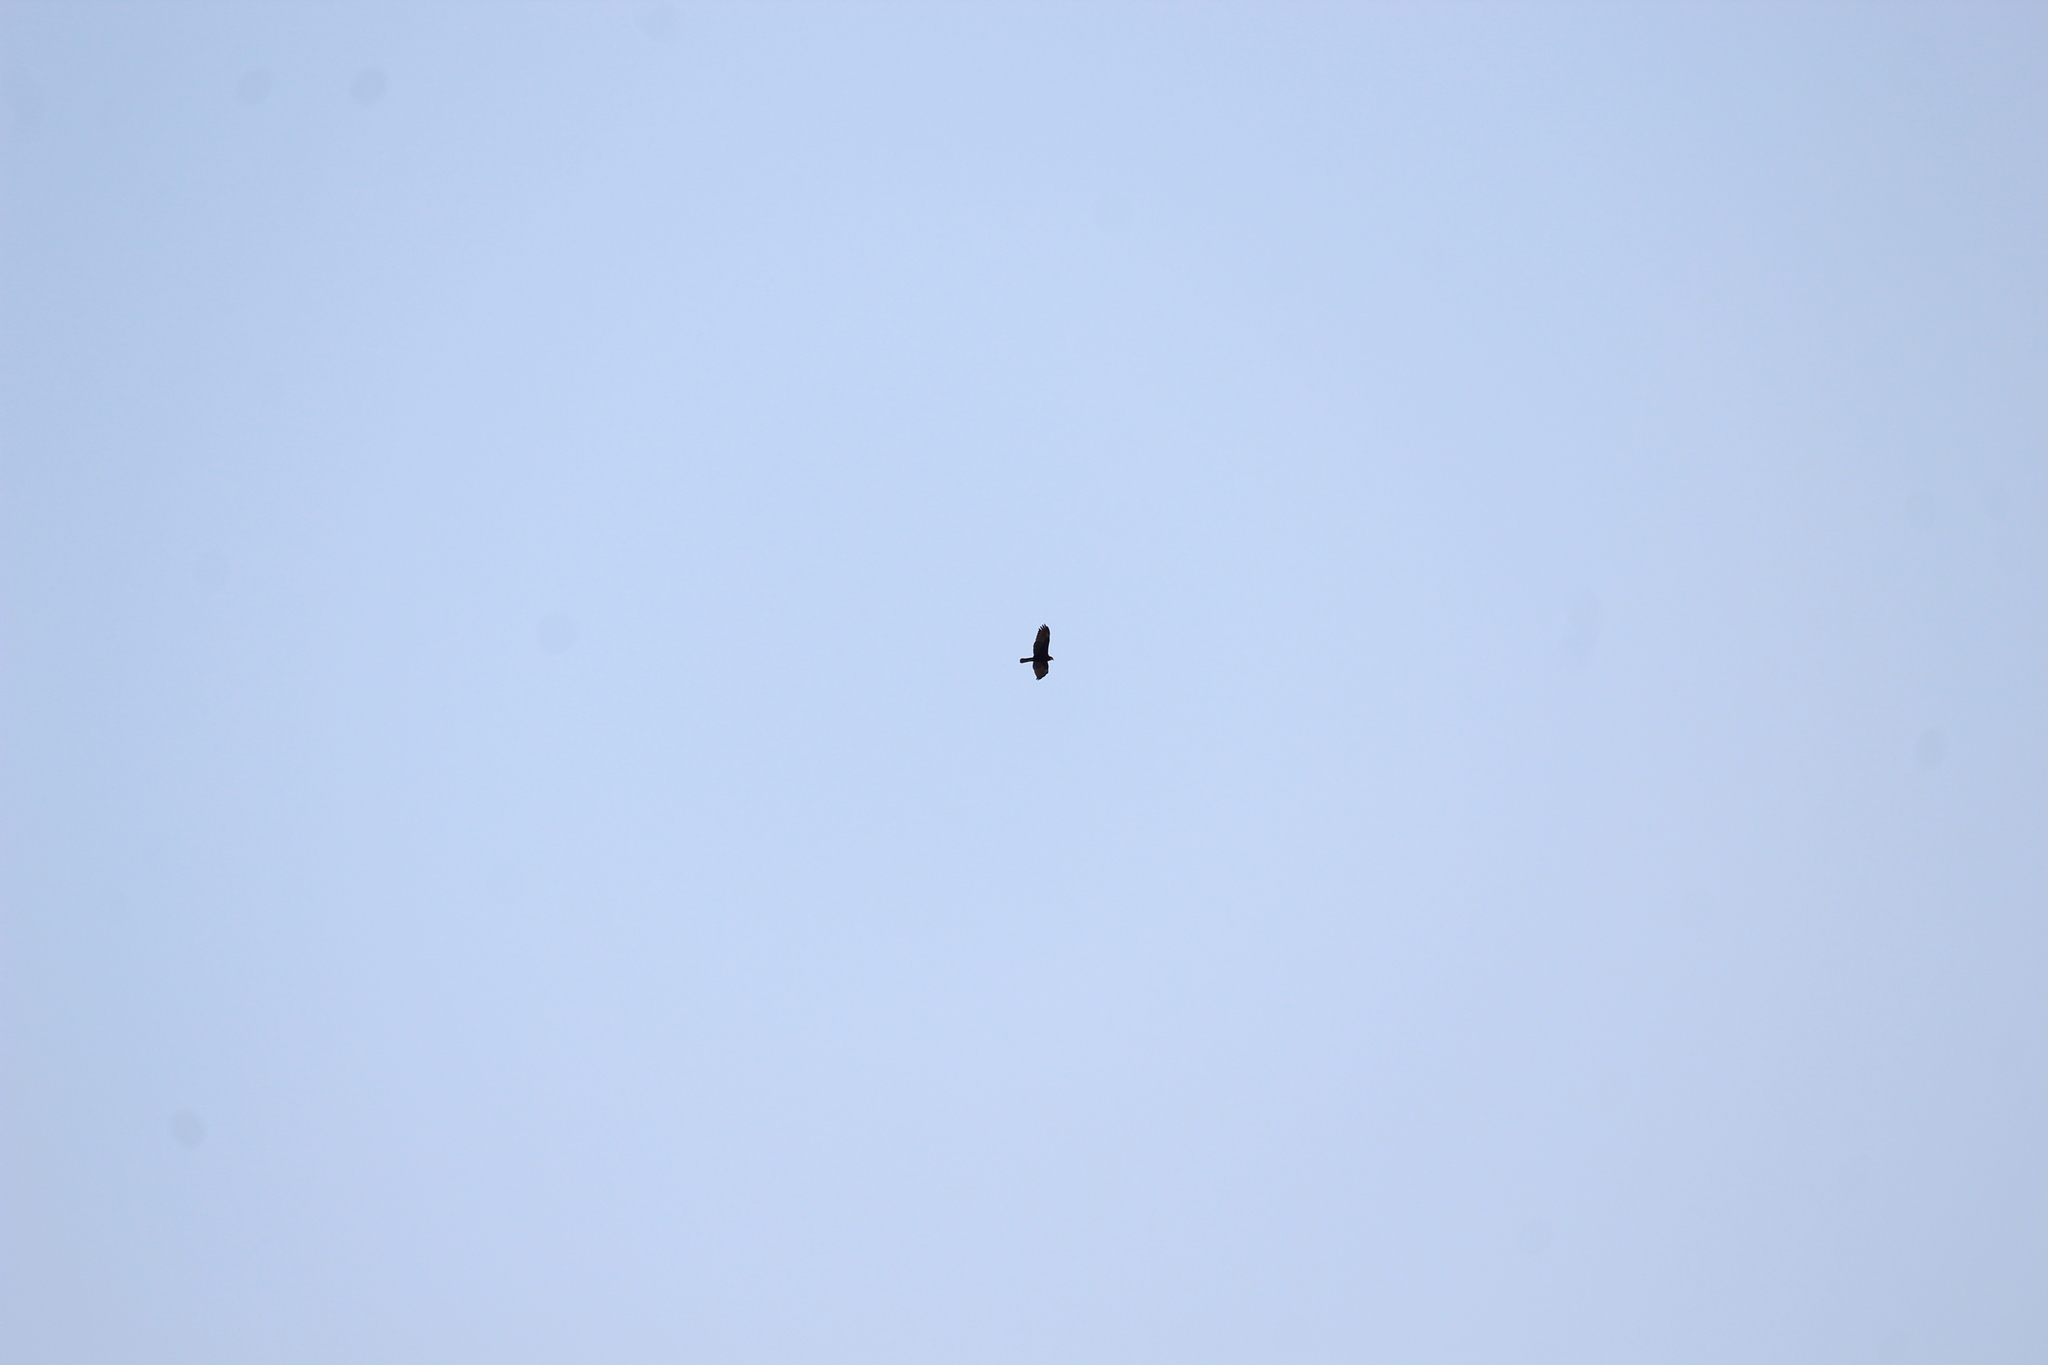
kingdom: Animalia
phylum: Chordata
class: Aves
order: Accipitriformes
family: Accipitridae
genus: Circus
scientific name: Circus aeruginosus
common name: Western marsh harrier
